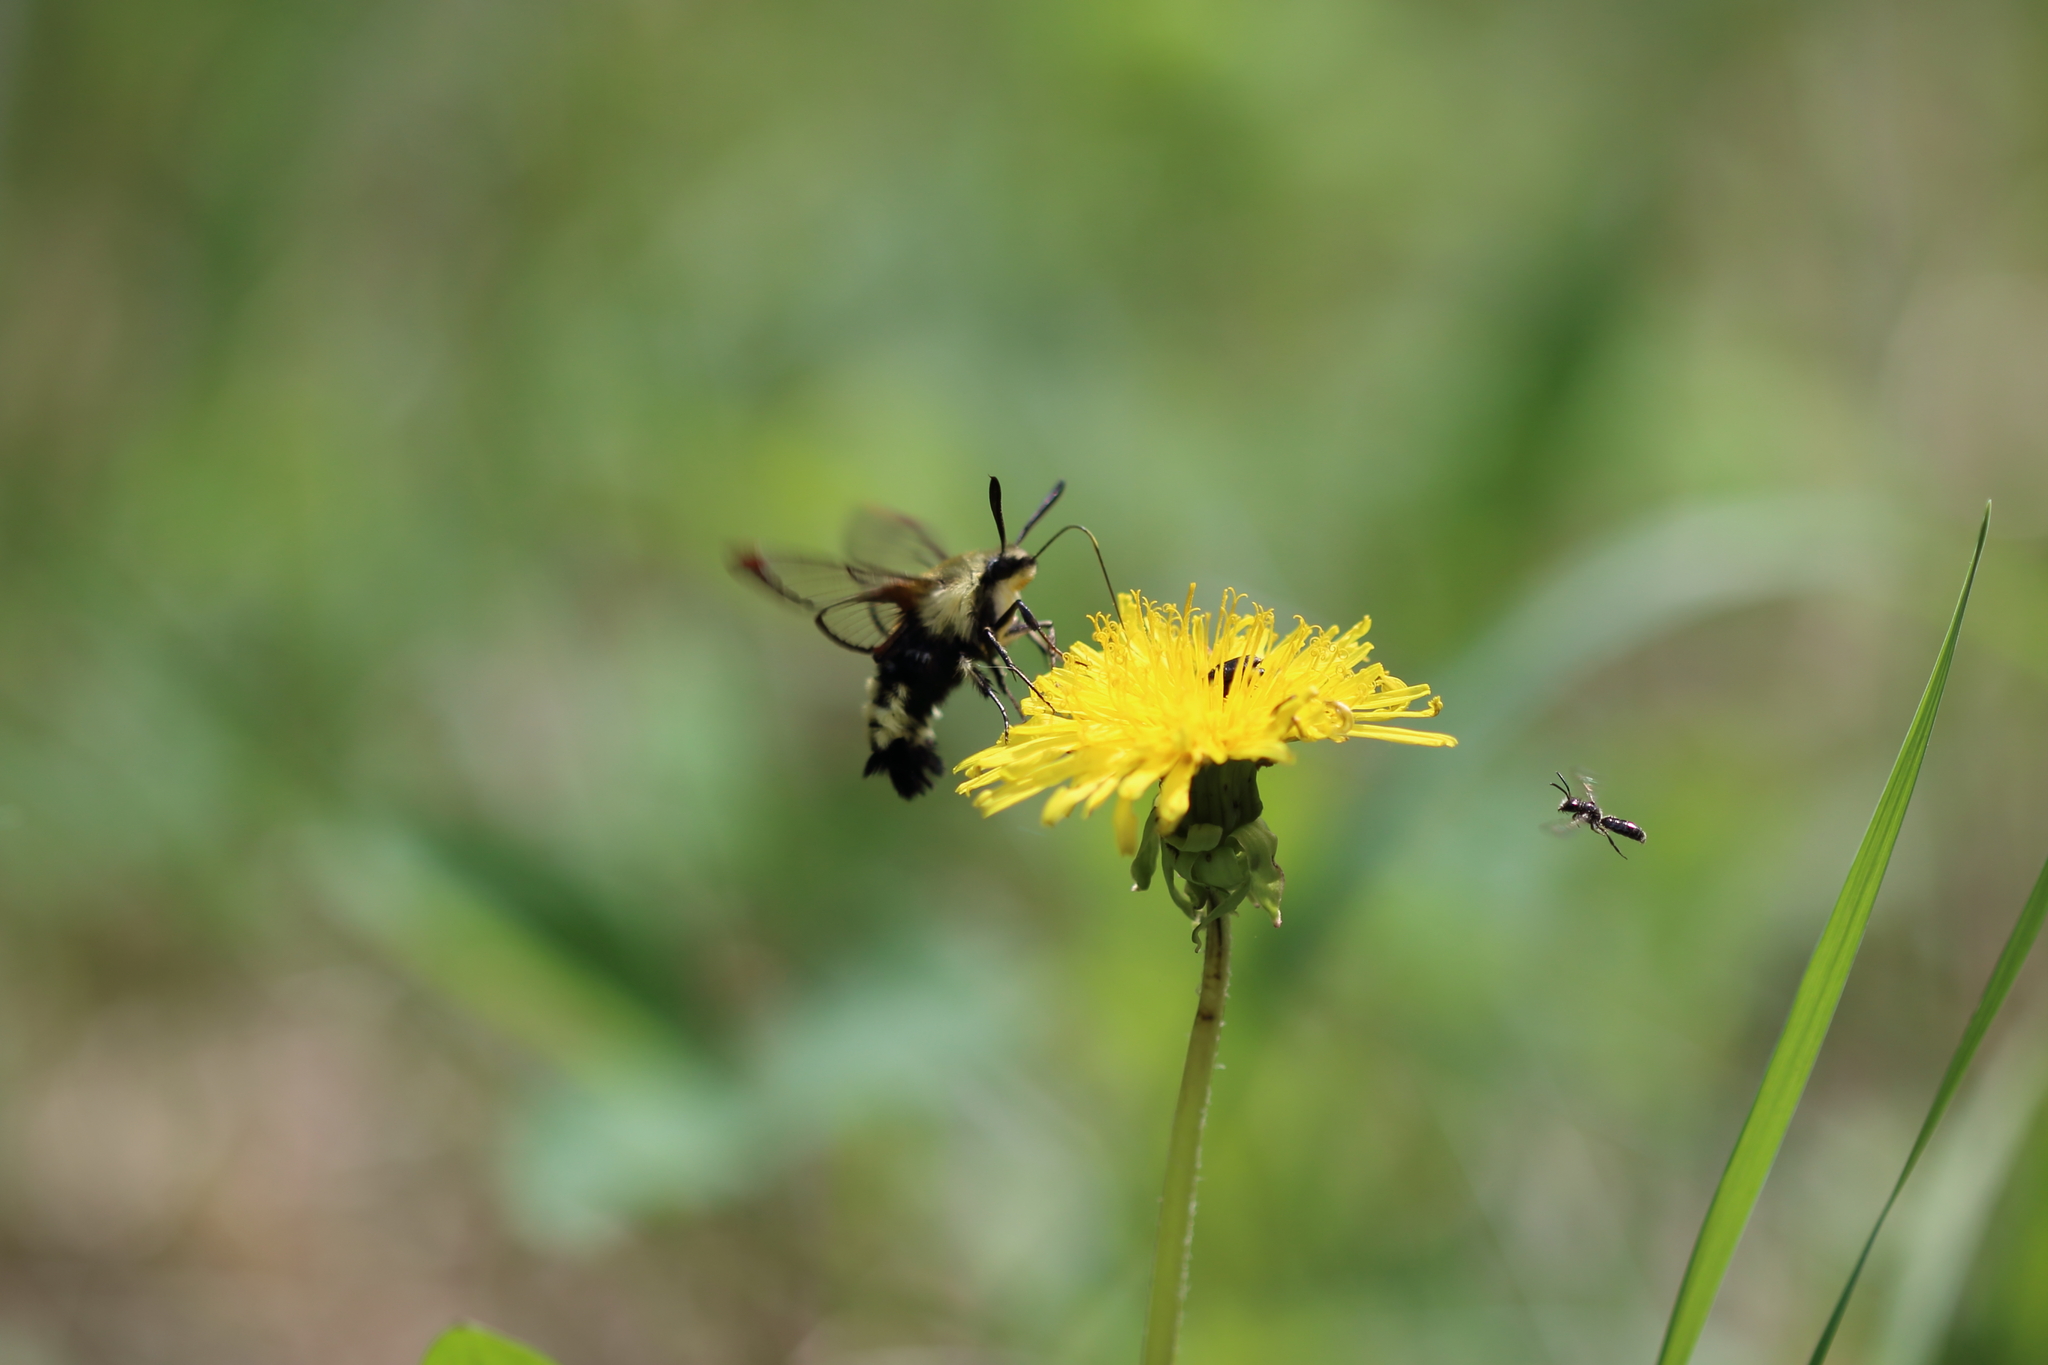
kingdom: Animalia
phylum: Arthropoda
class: Insecta
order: Lepidoptera
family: Sphingidae
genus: Hemaris
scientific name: Hemaris thetis
